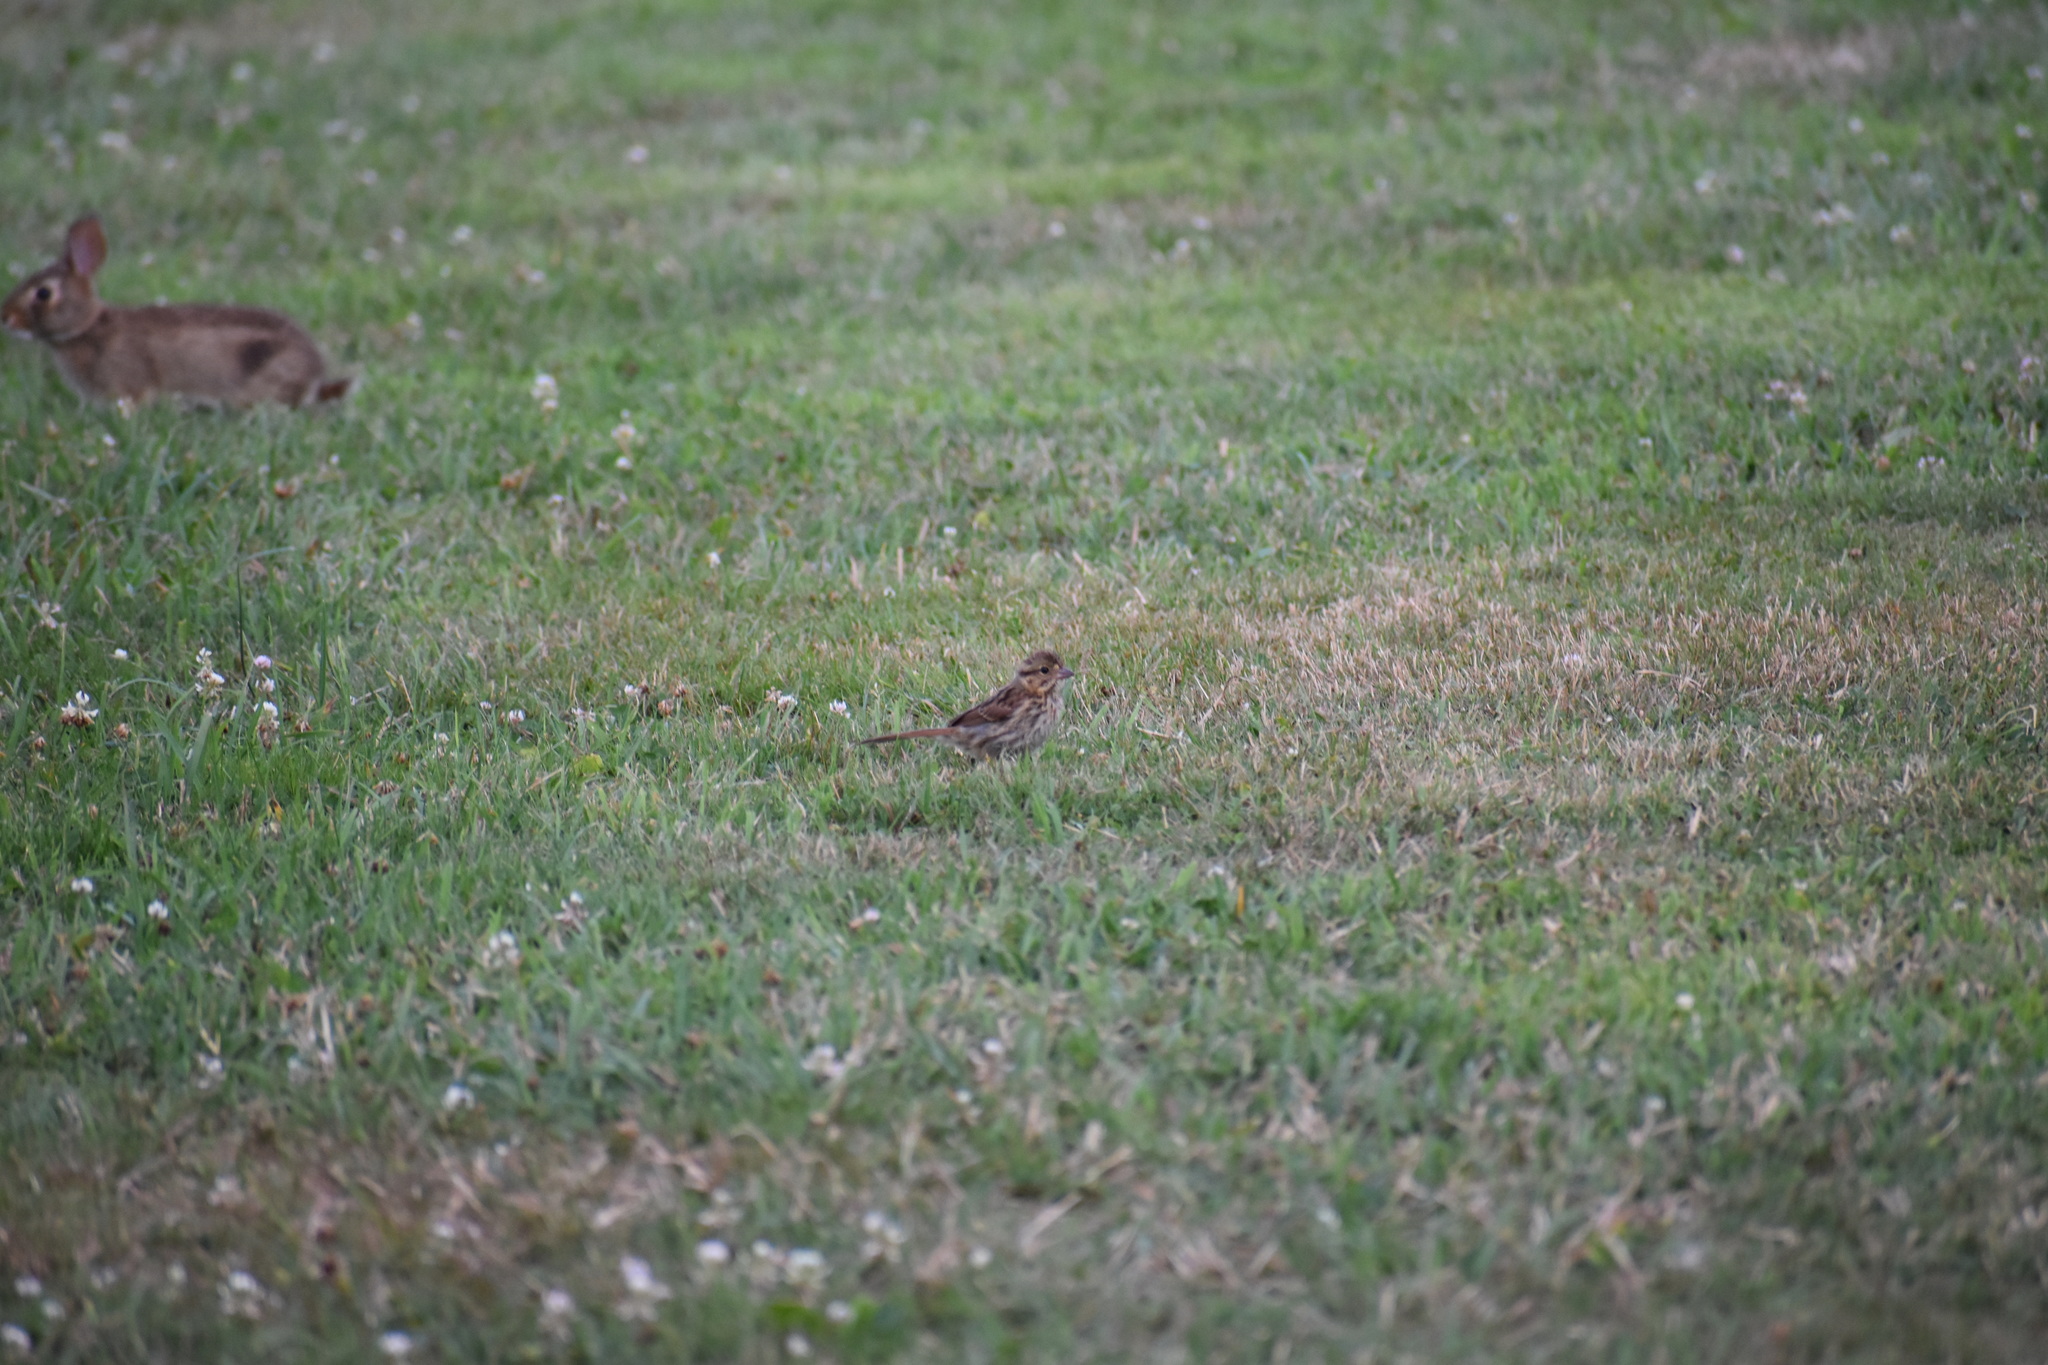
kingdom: Animalia
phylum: Chordata
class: Aves
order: Passeriformes
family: Passerellidae
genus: Melospiza
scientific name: Melospiza melodia
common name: Song sparrow
